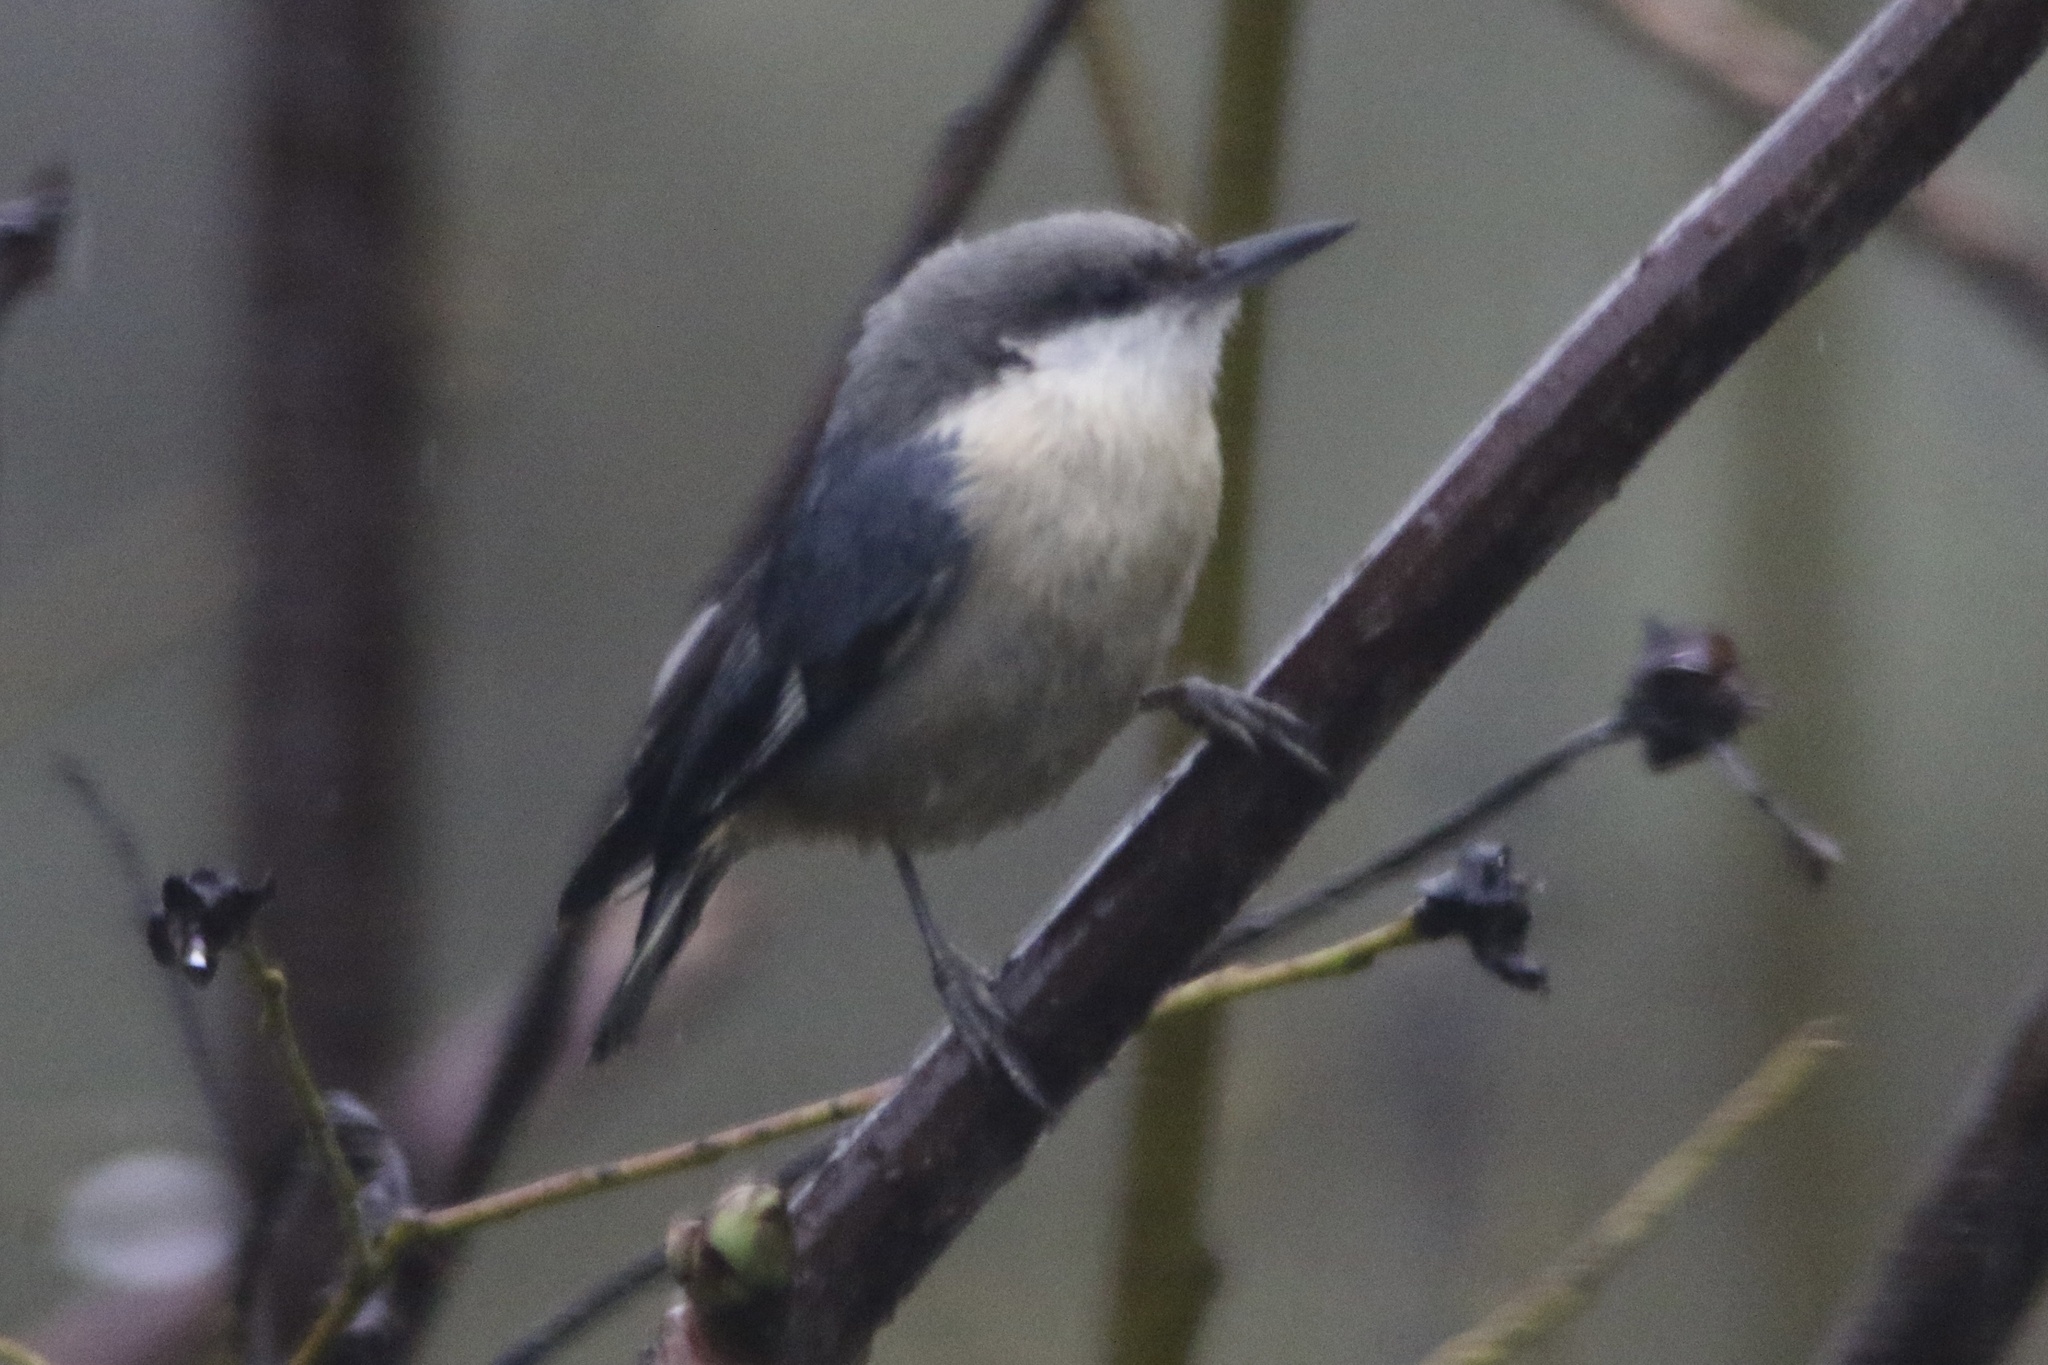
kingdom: Animalia
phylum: Chordata
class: Aves
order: Passeriformes
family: Sittidae
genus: Sitta
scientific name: Sitta pygmaea
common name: Pygmy nuthatch
